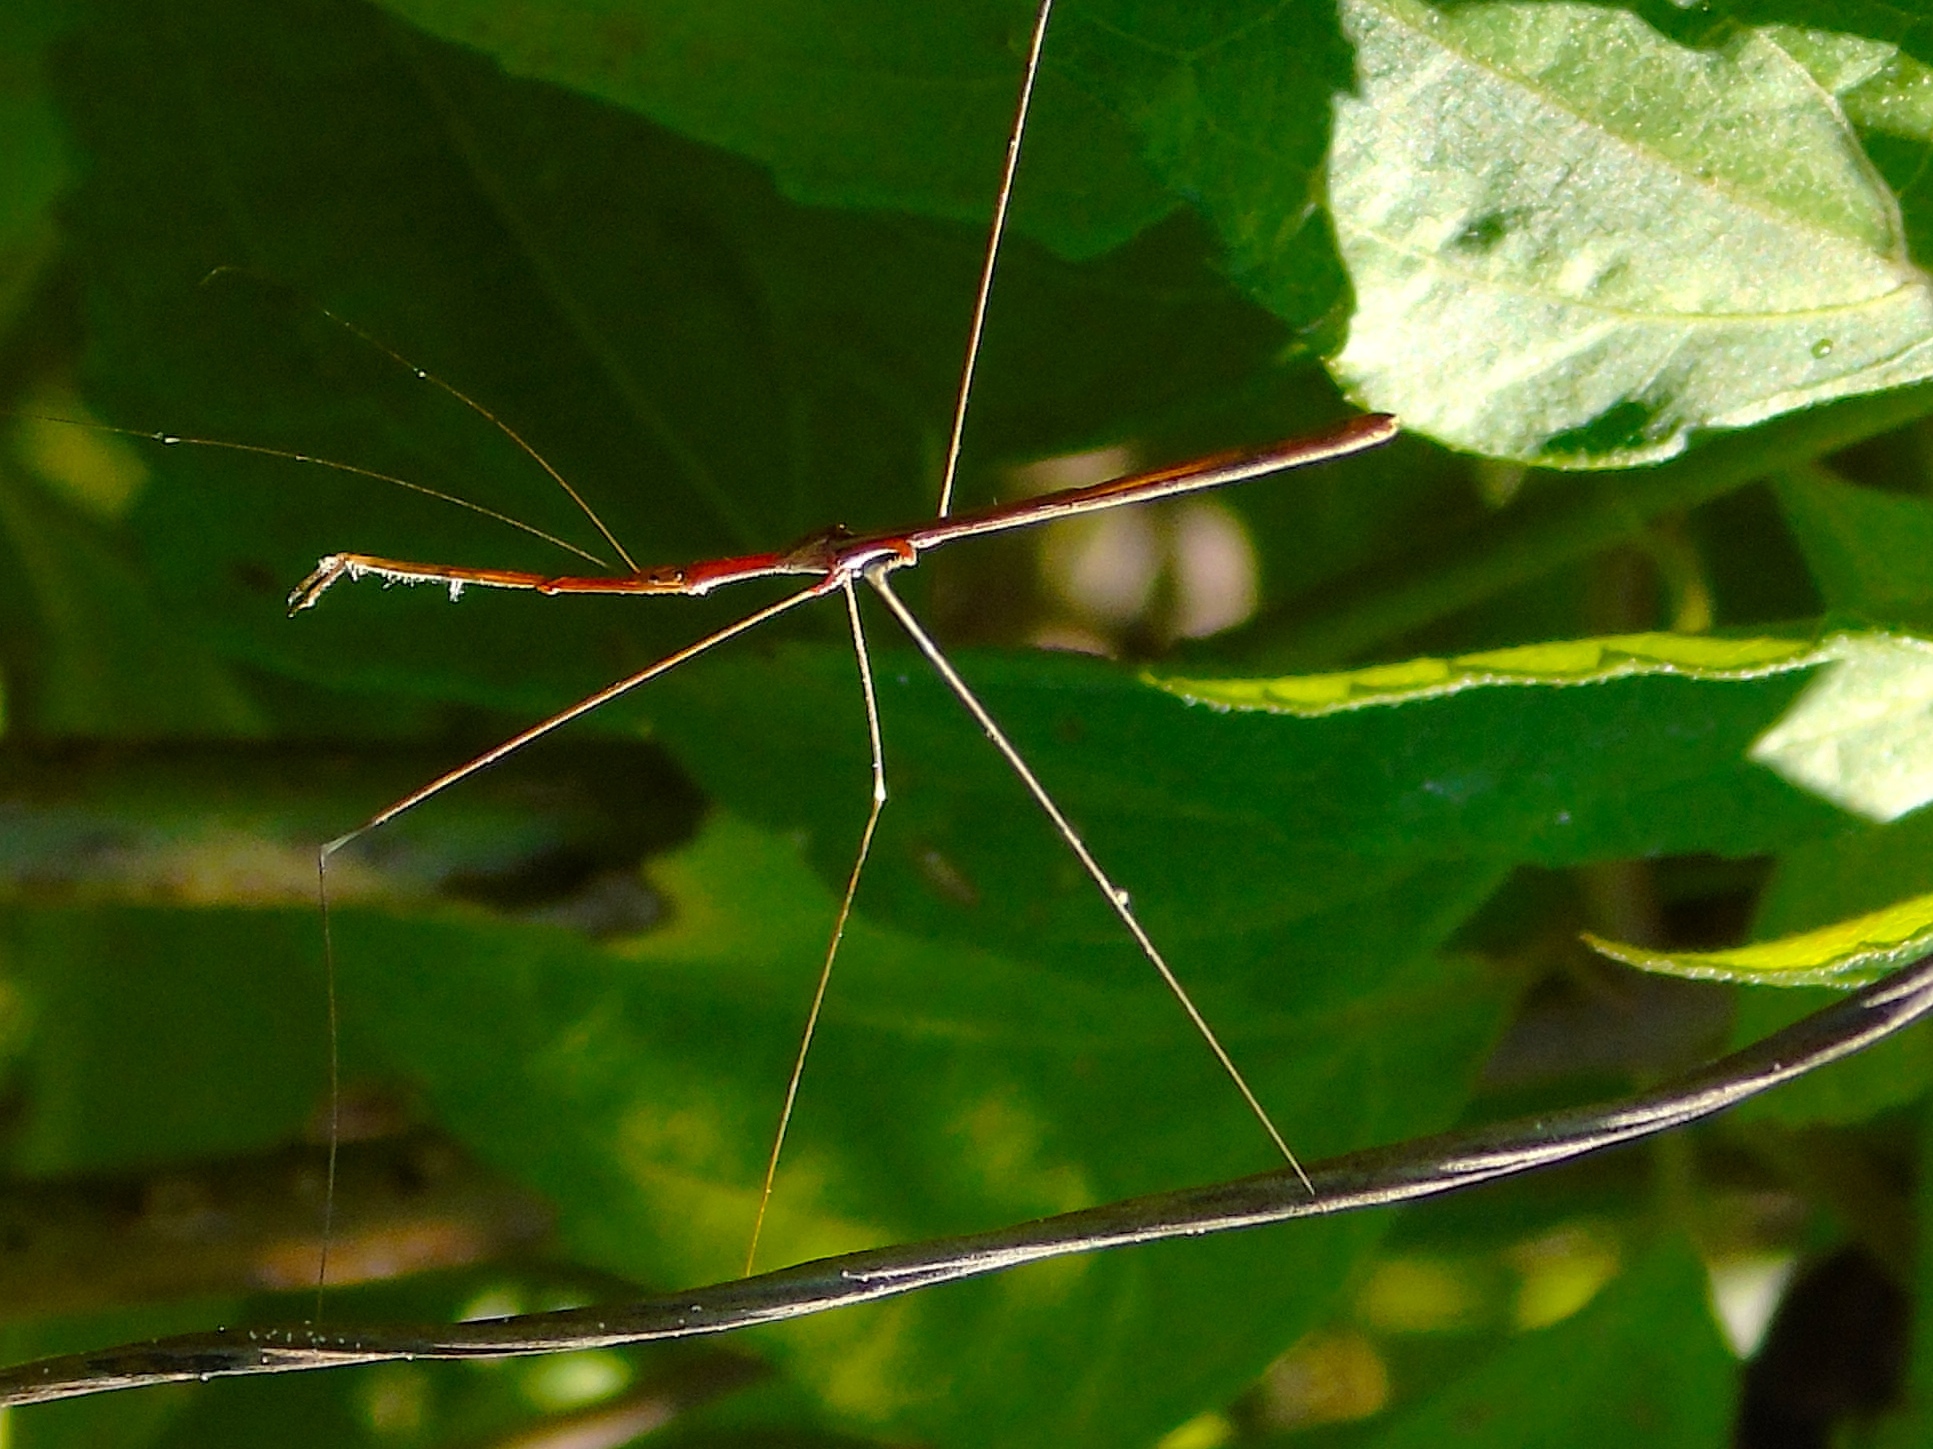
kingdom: Animalia
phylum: Arthropoda
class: Insecta
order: Hemiptera
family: Reduviidae
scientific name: Reduviidae
